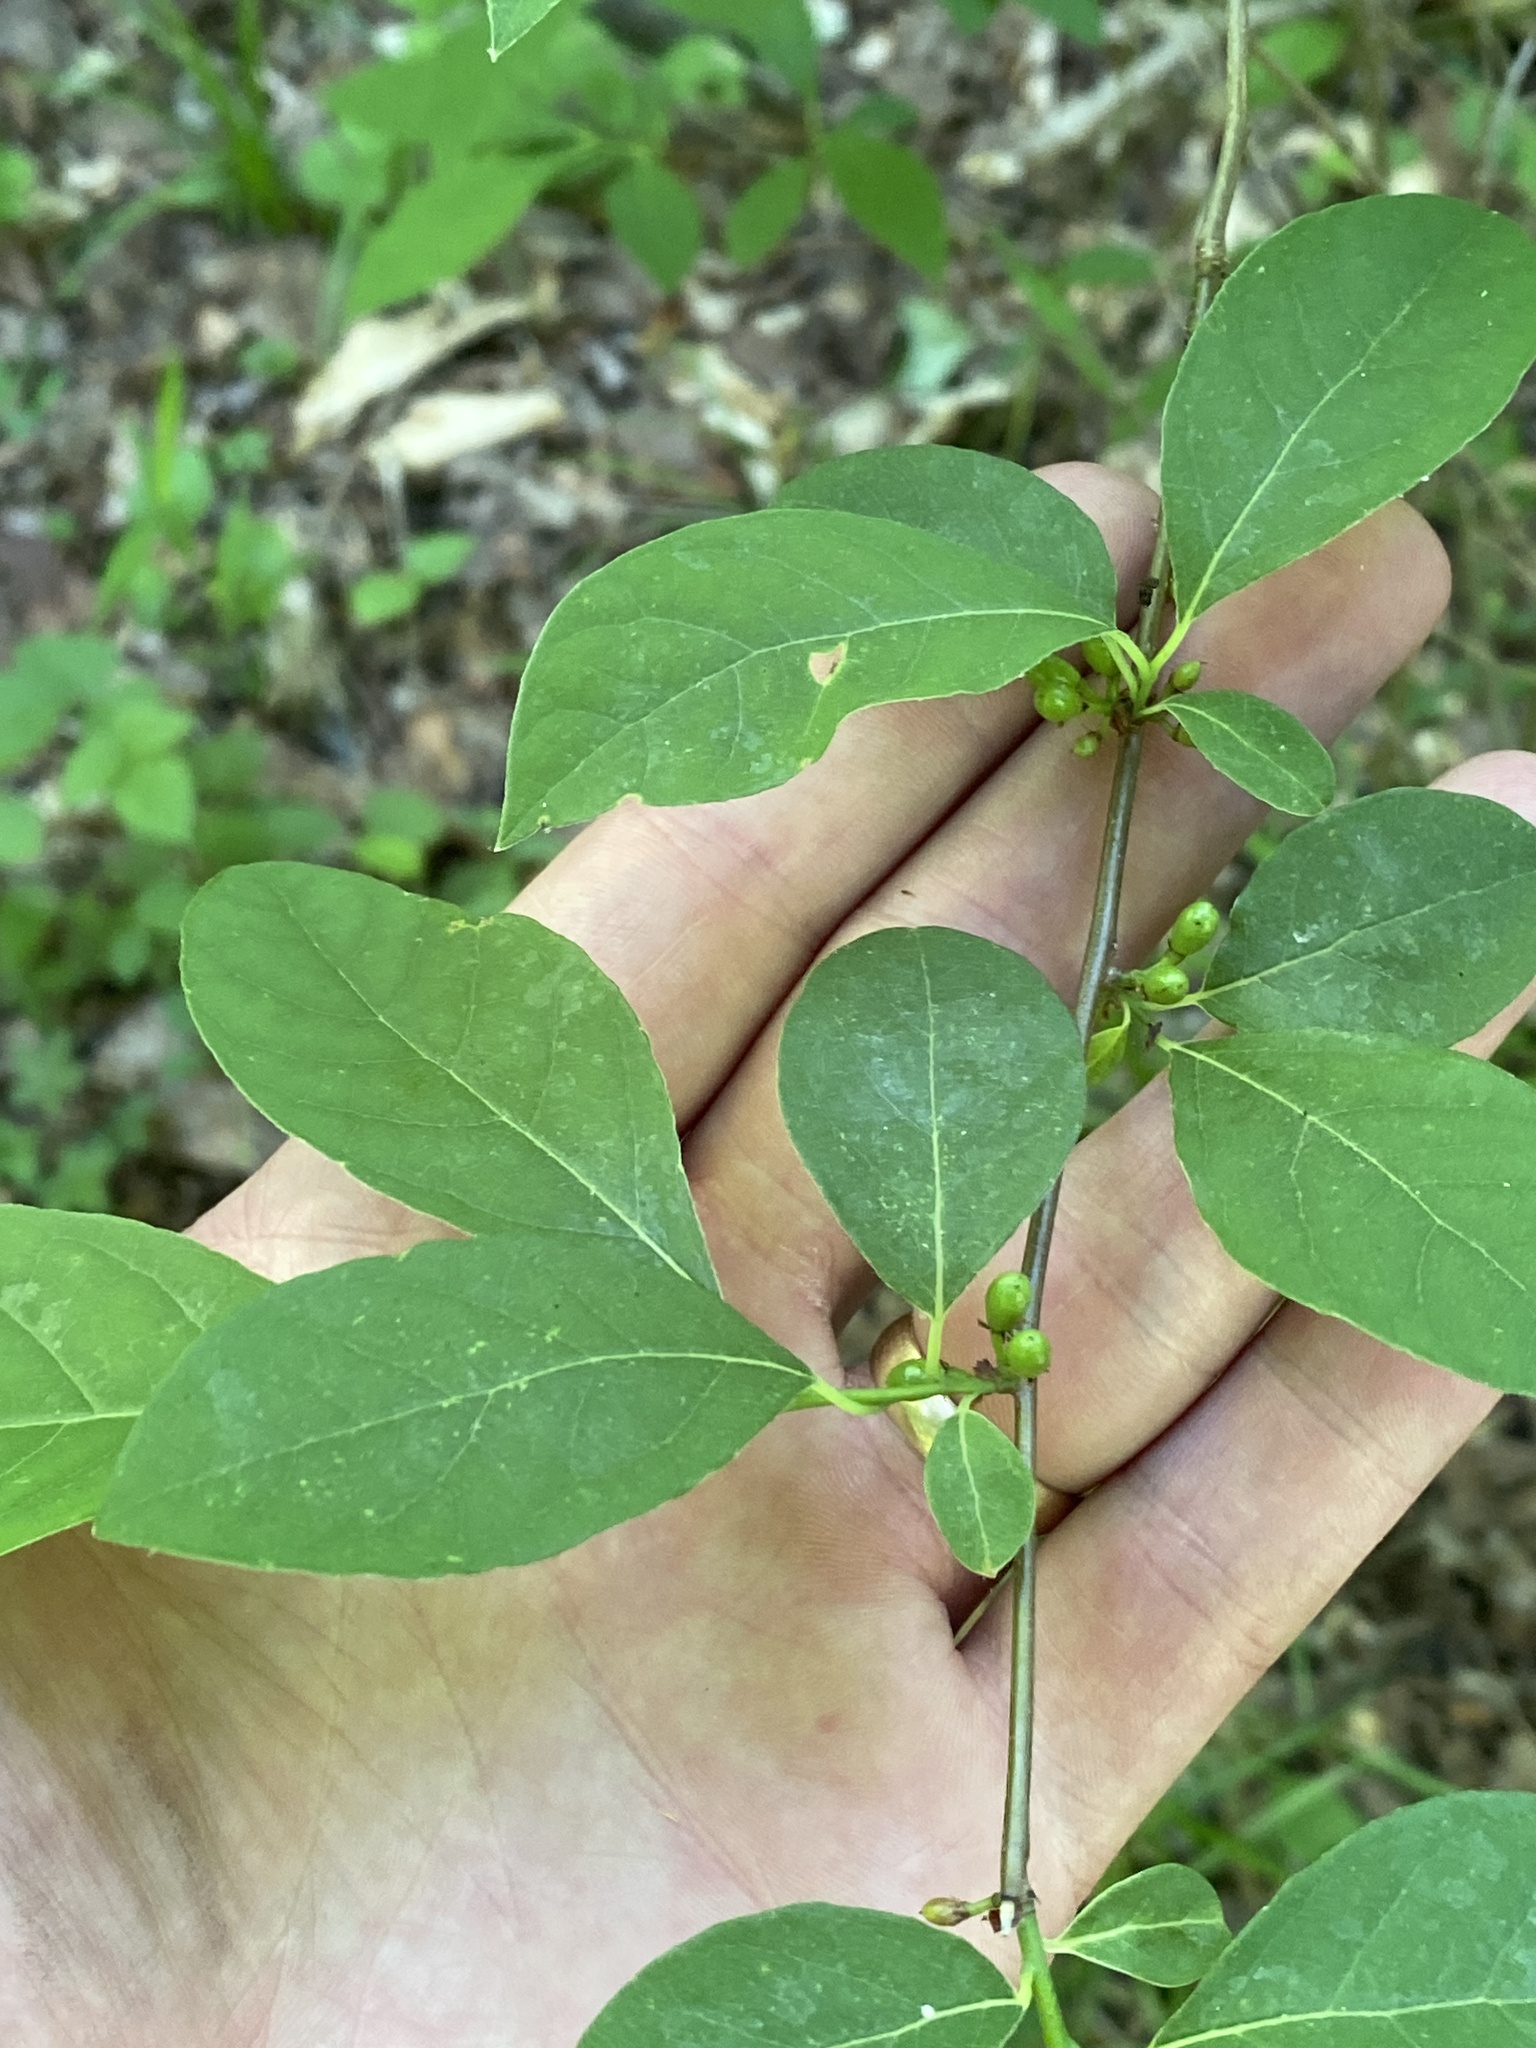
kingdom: Plantae
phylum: Tracheophyta
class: Magnoliopsida
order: Laurales
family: Lauraceae
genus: Lindera
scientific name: Lindera benzoin
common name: Spicebush
